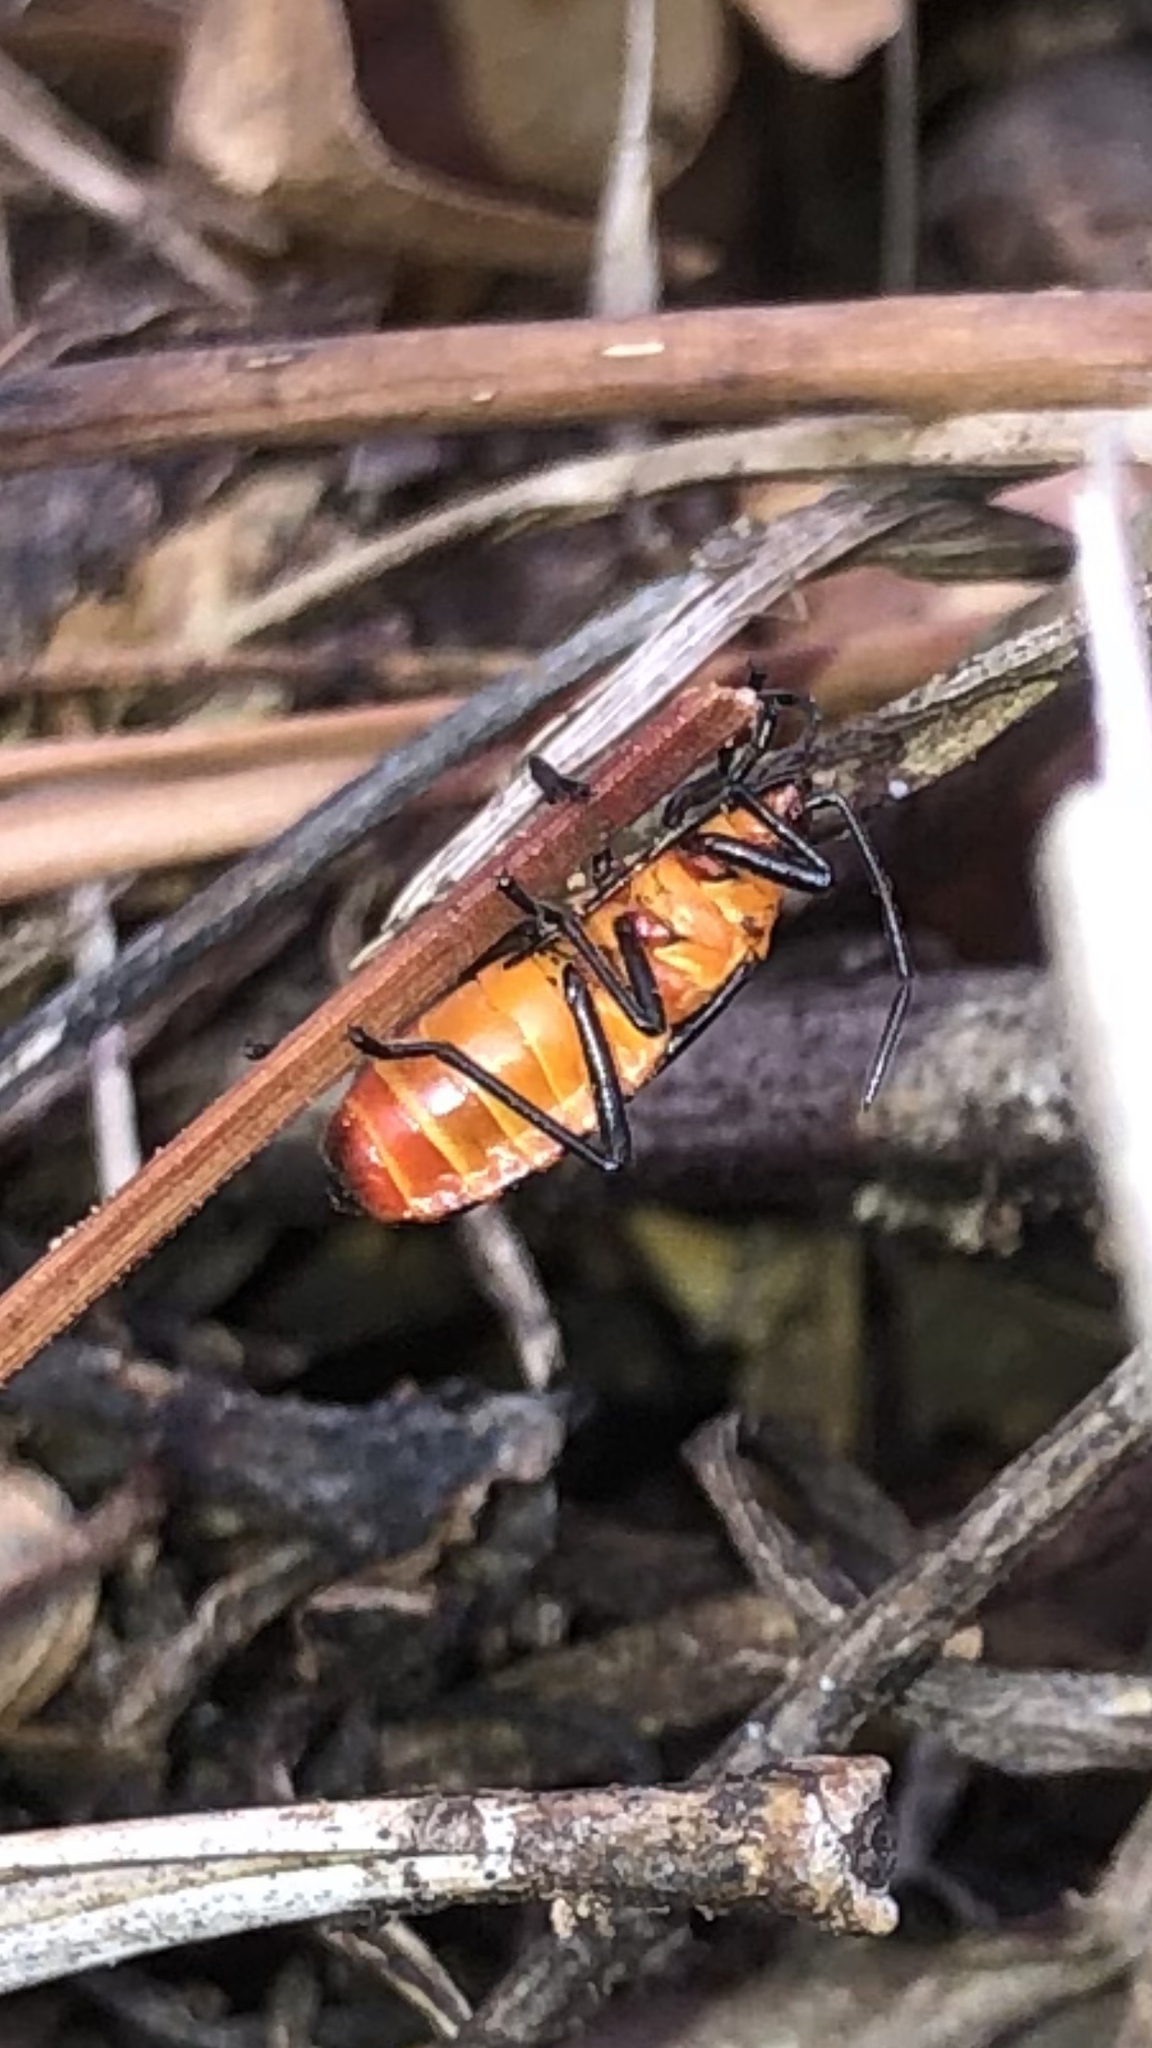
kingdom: Animalia
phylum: Arthropoda
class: Insecta
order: Hemiptera
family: Lygaeidae
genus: Oncopeltus
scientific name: Oncopeltus fasciatus
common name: Large milkweed bug
